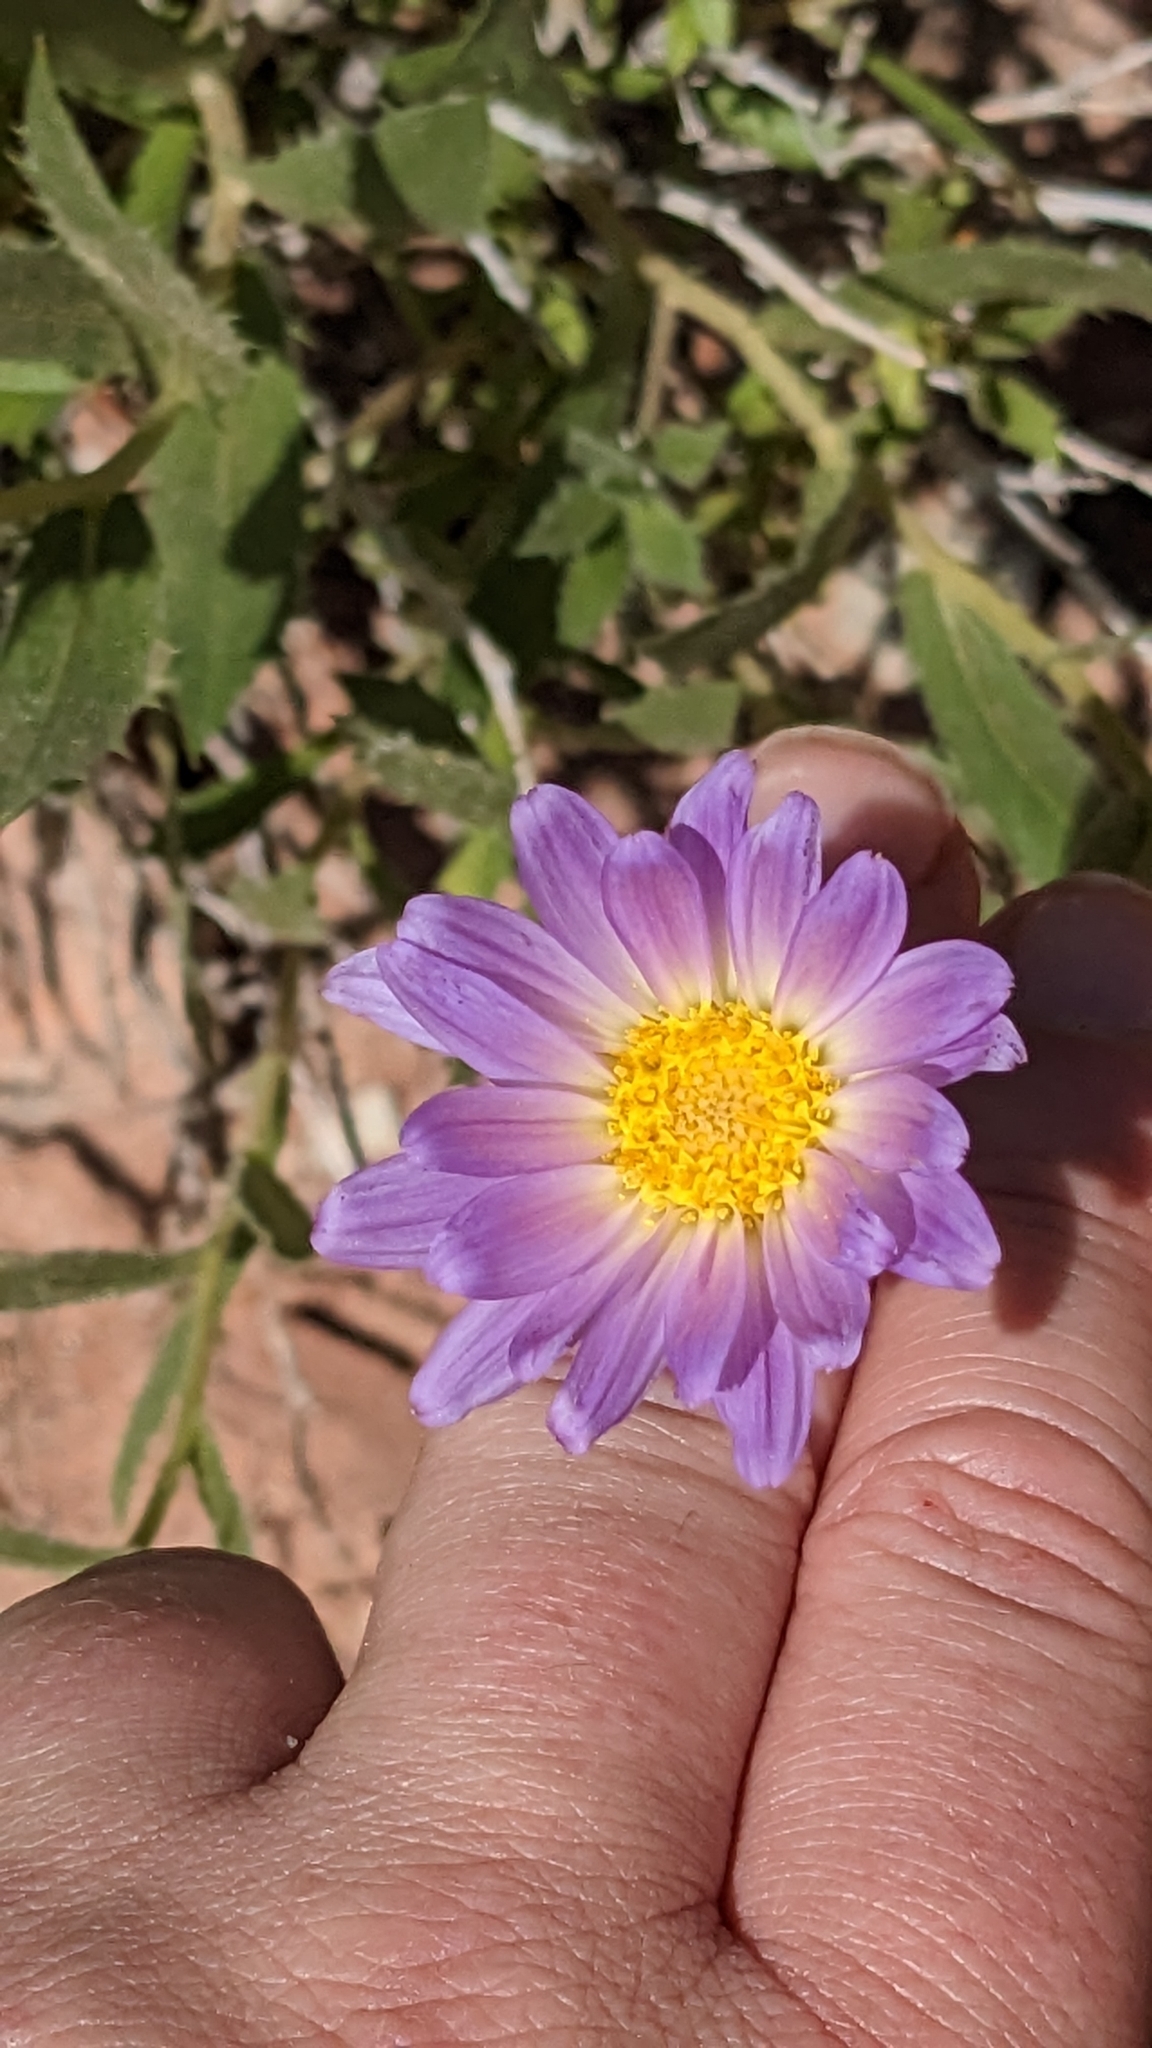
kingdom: Plantae
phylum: Tracheophyta
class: Magnoliopsida
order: Asterales
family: Asteraceae
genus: Xylorhiza
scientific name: Xylorhiza tortifolia
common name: Hurt-leaf woody-aster
